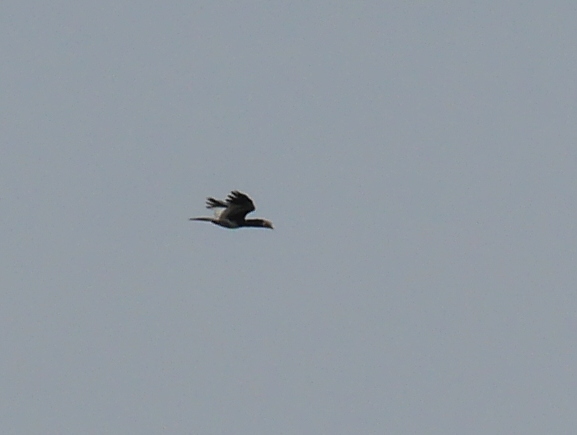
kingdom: Animalia
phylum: Chordata
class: Aves
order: Bucerotiformes
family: Bucerotidae
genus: Bycanistes
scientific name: Bycanistes albotibialis
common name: White-thighed hornbill
